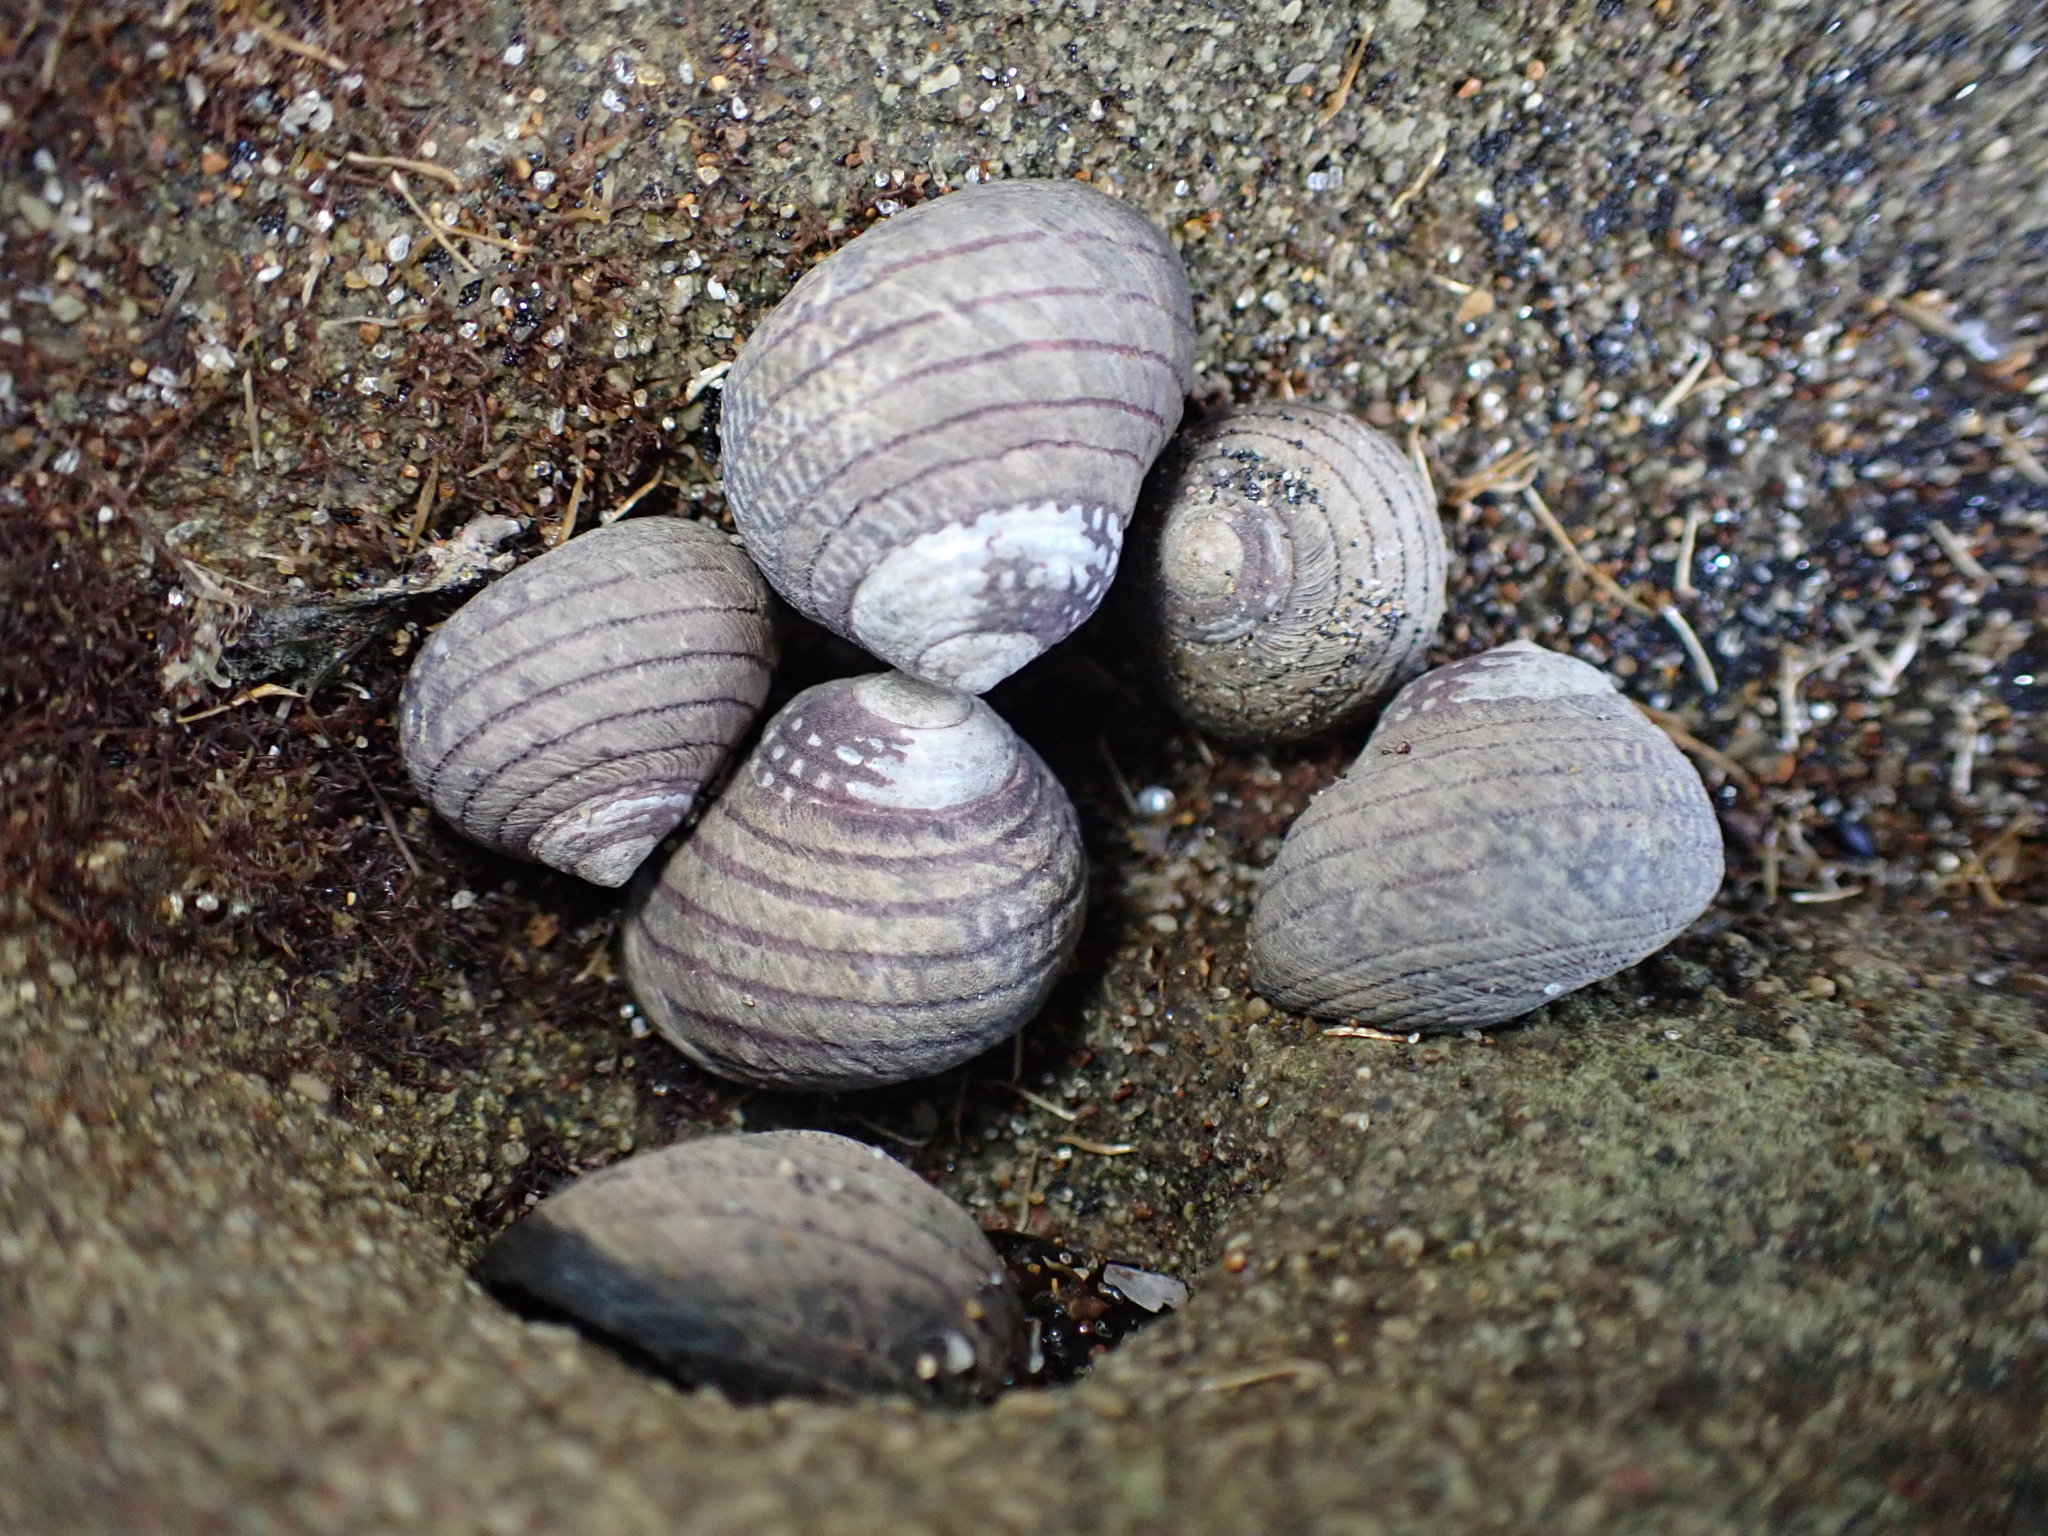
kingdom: Animalia
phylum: Mollusca
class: Gastropoda
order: Trochida
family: Trochidae
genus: Diloma
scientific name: Diloma aethiops
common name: Scorched monodont
